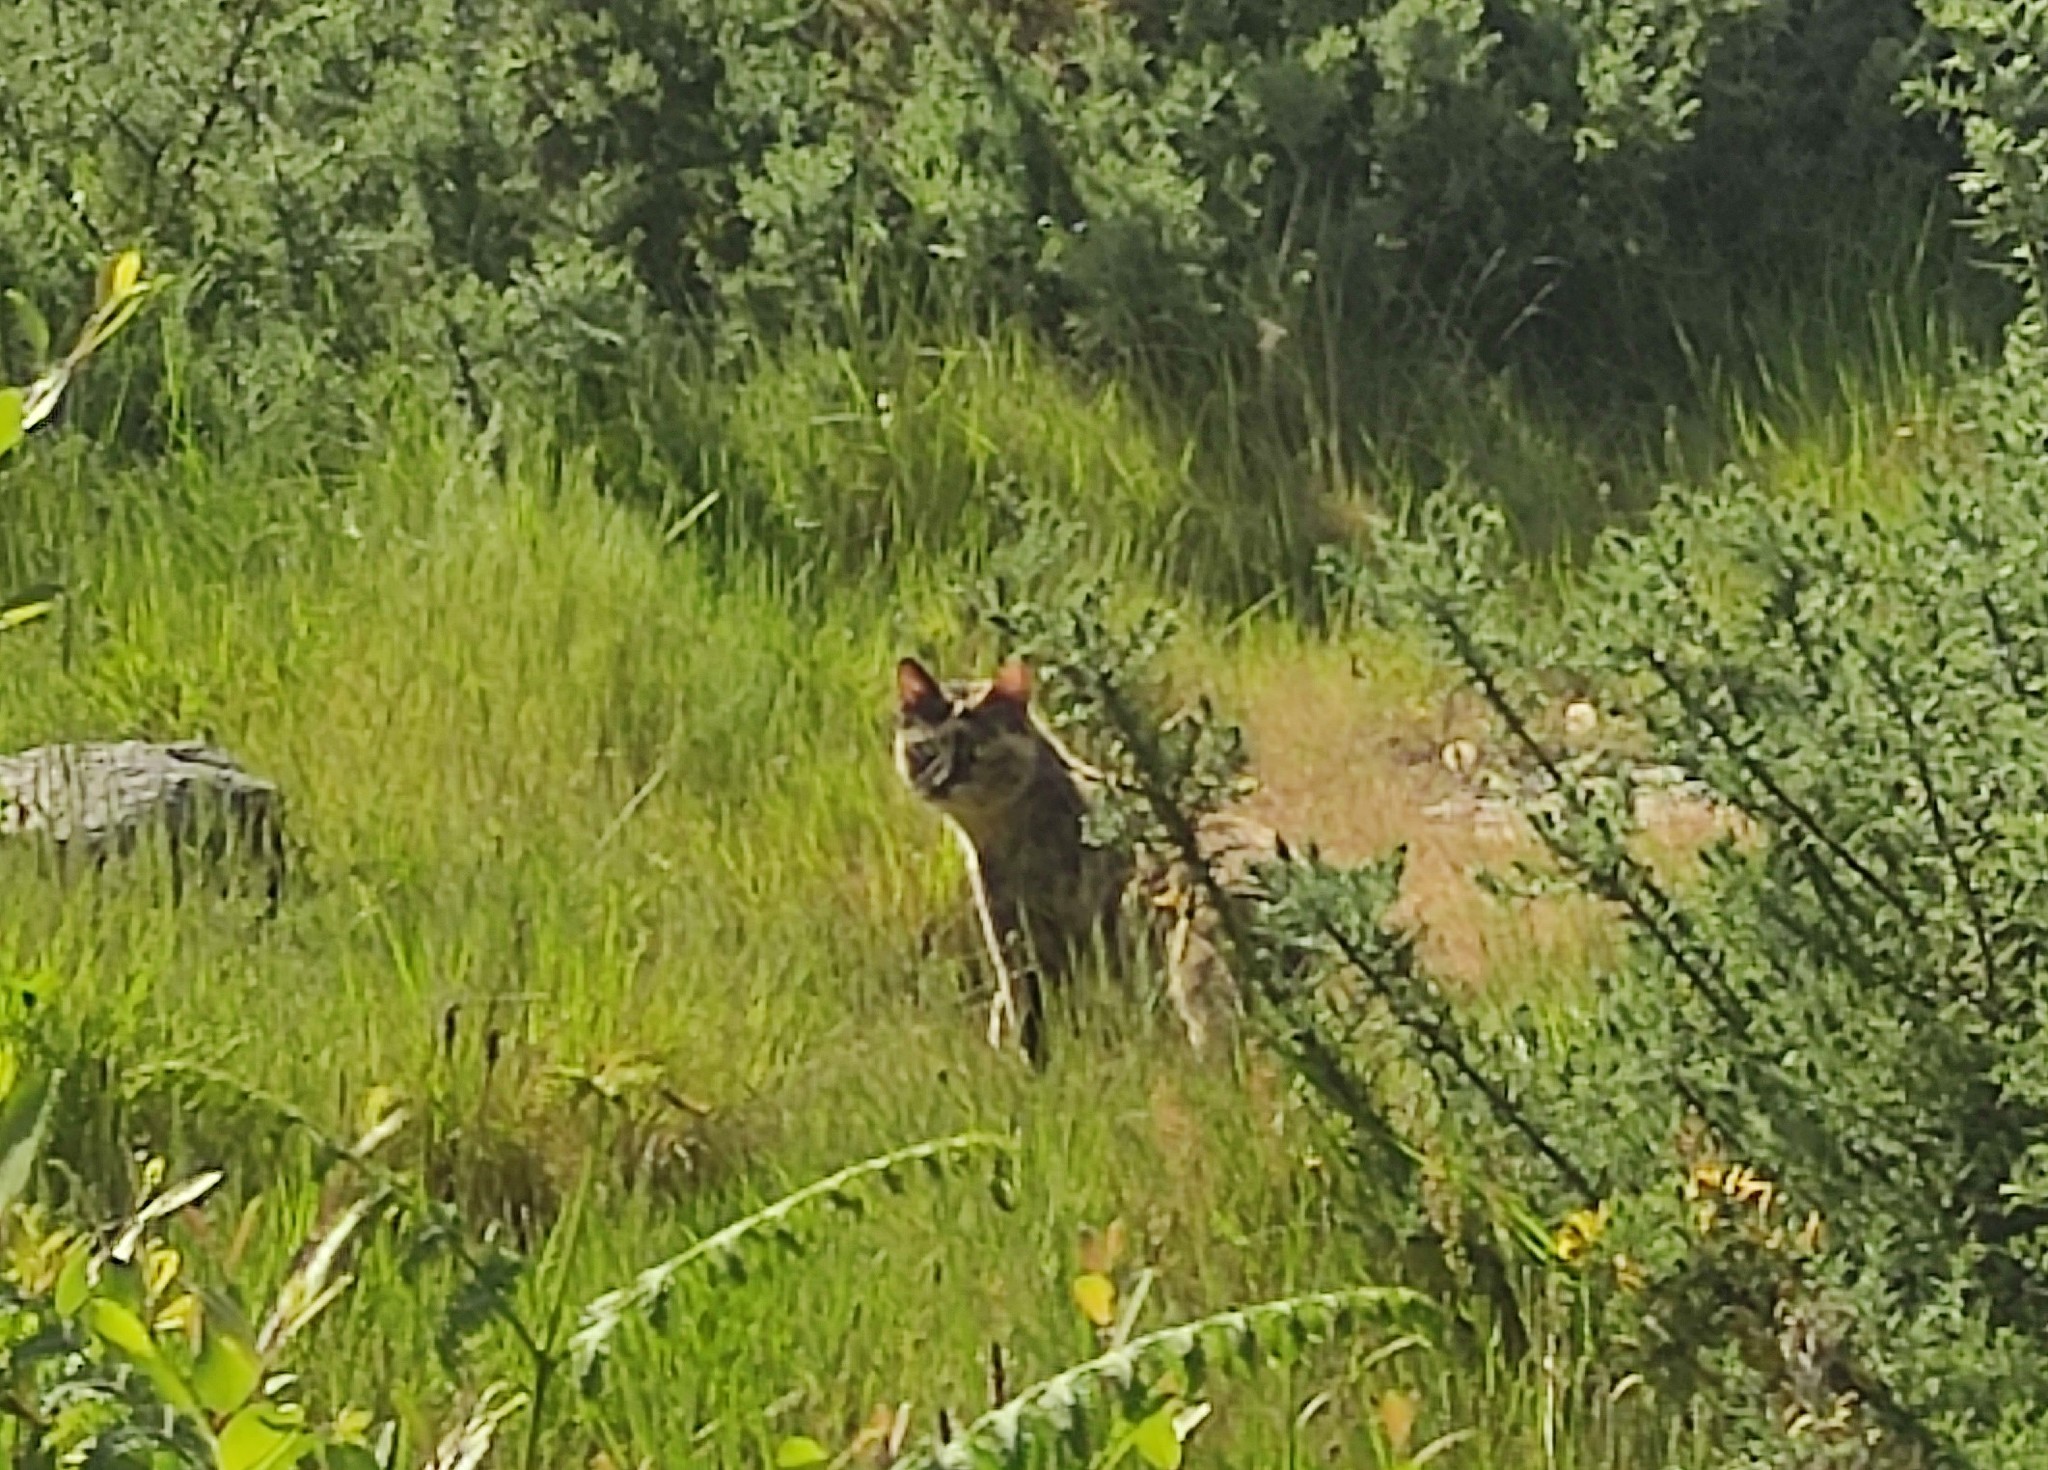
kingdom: Animalia
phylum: Chordata
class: Mammalia
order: Carnivora
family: Felidae
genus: Felis
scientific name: Felis catus
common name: Domestic cat
